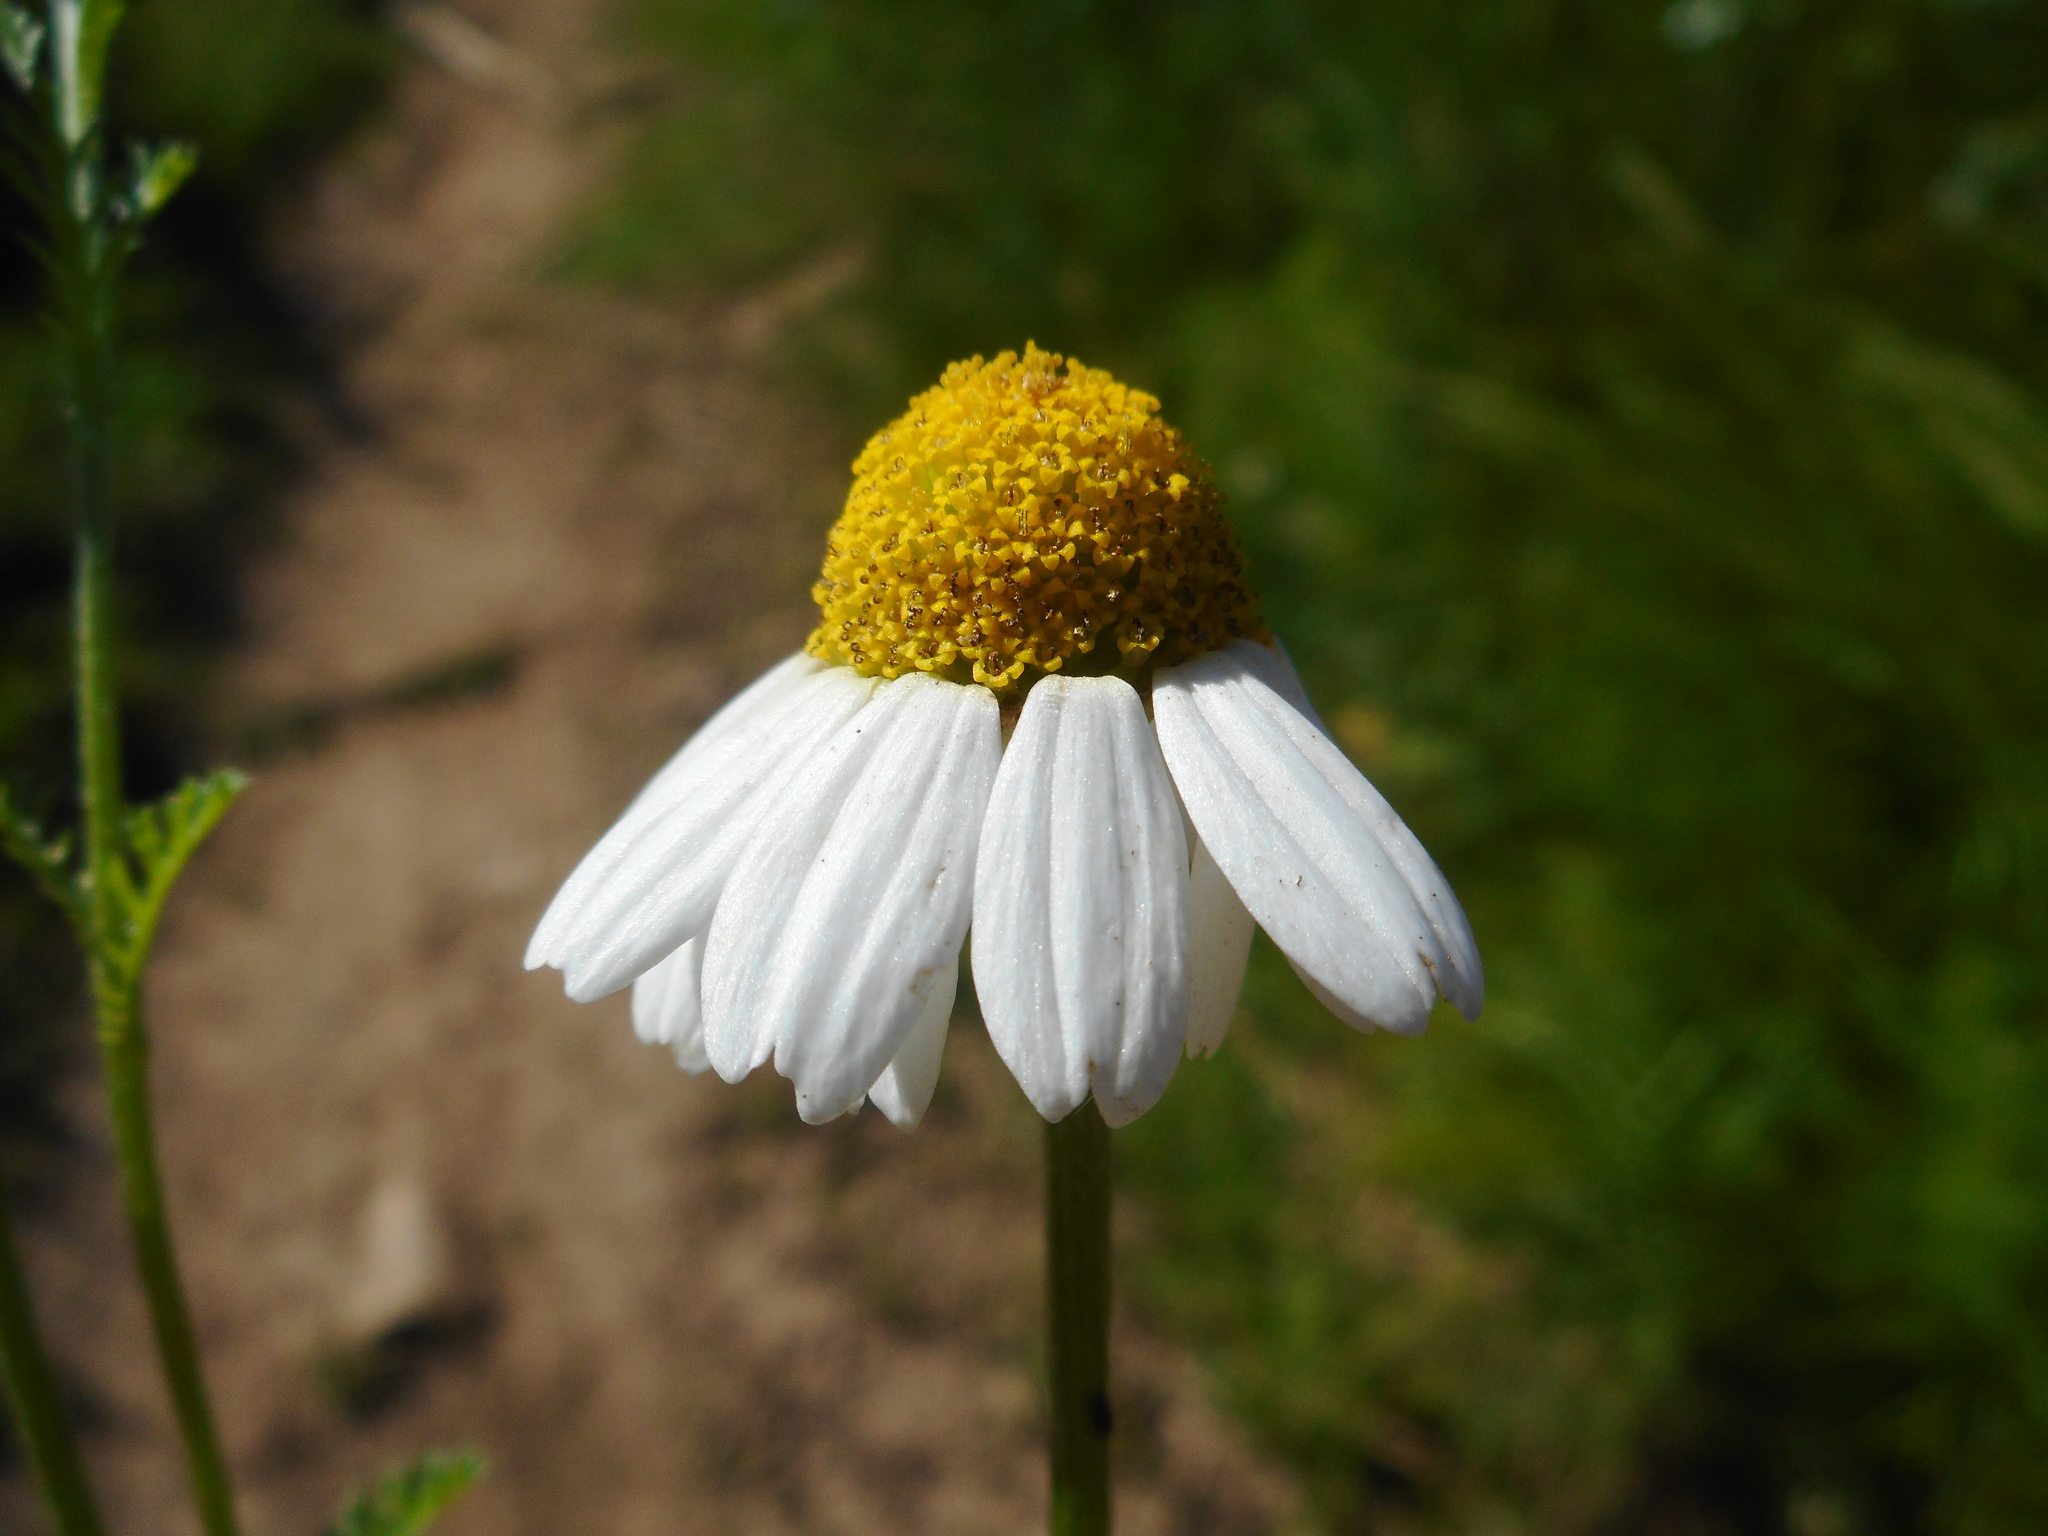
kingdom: Plantae
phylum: Tracheophyta
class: Magnoliopsida
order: Asterales
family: Asteraceae
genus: Anthemis
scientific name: Anthemis arvensis
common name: Corn chamomile
